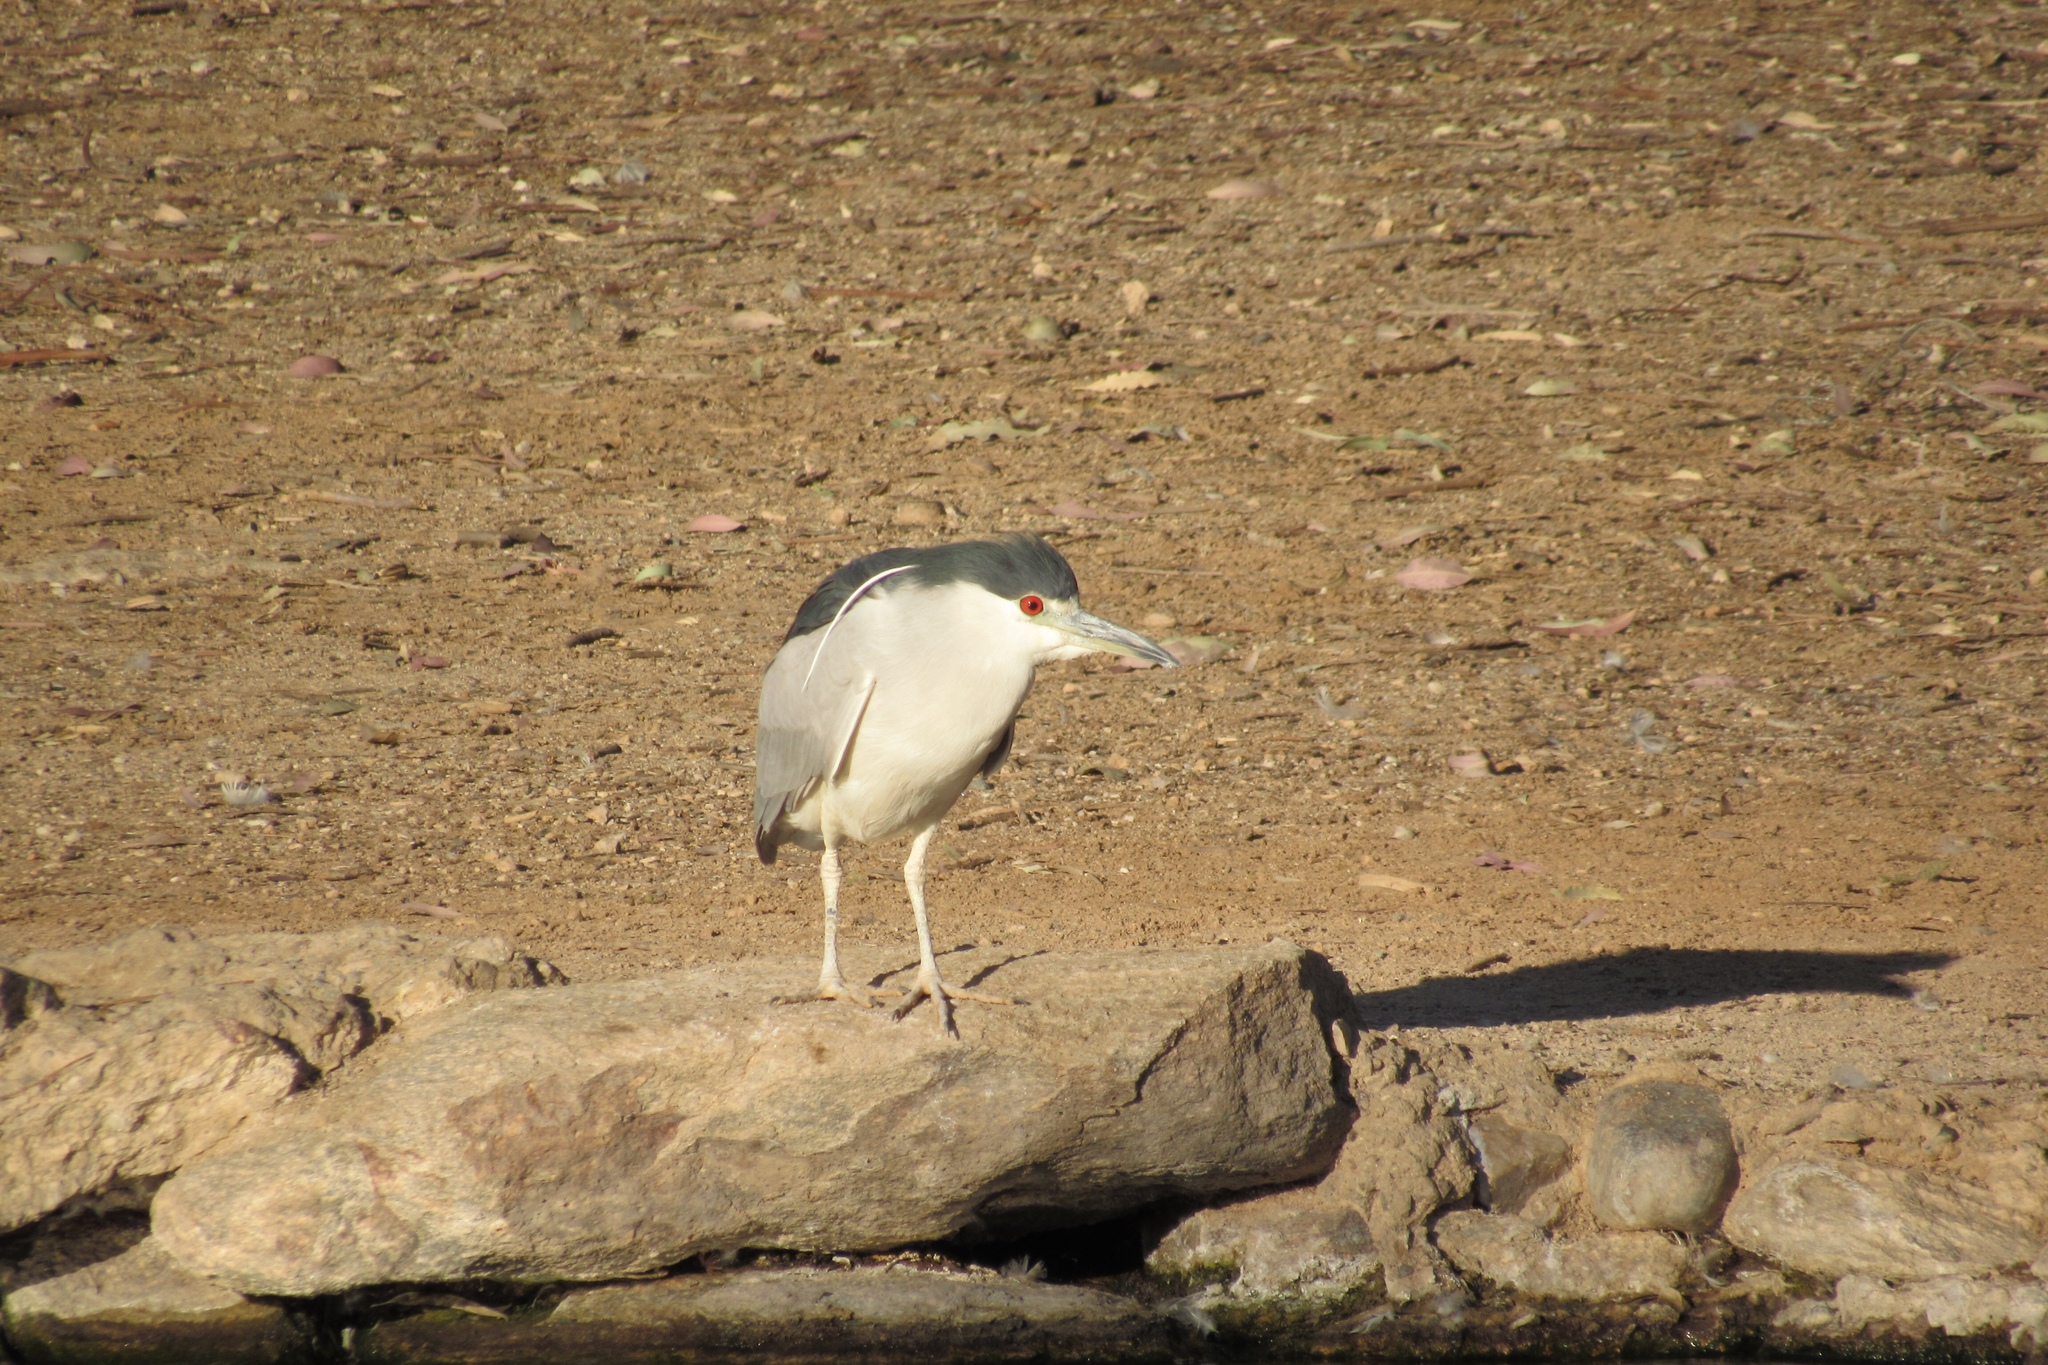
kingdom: Animalia
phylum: Chordata
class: Aves
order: Pelecaniformes
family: Ardeidae
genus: Nycticorax
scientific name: Nycticorax nycticorax
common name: Black-crowned night heron
